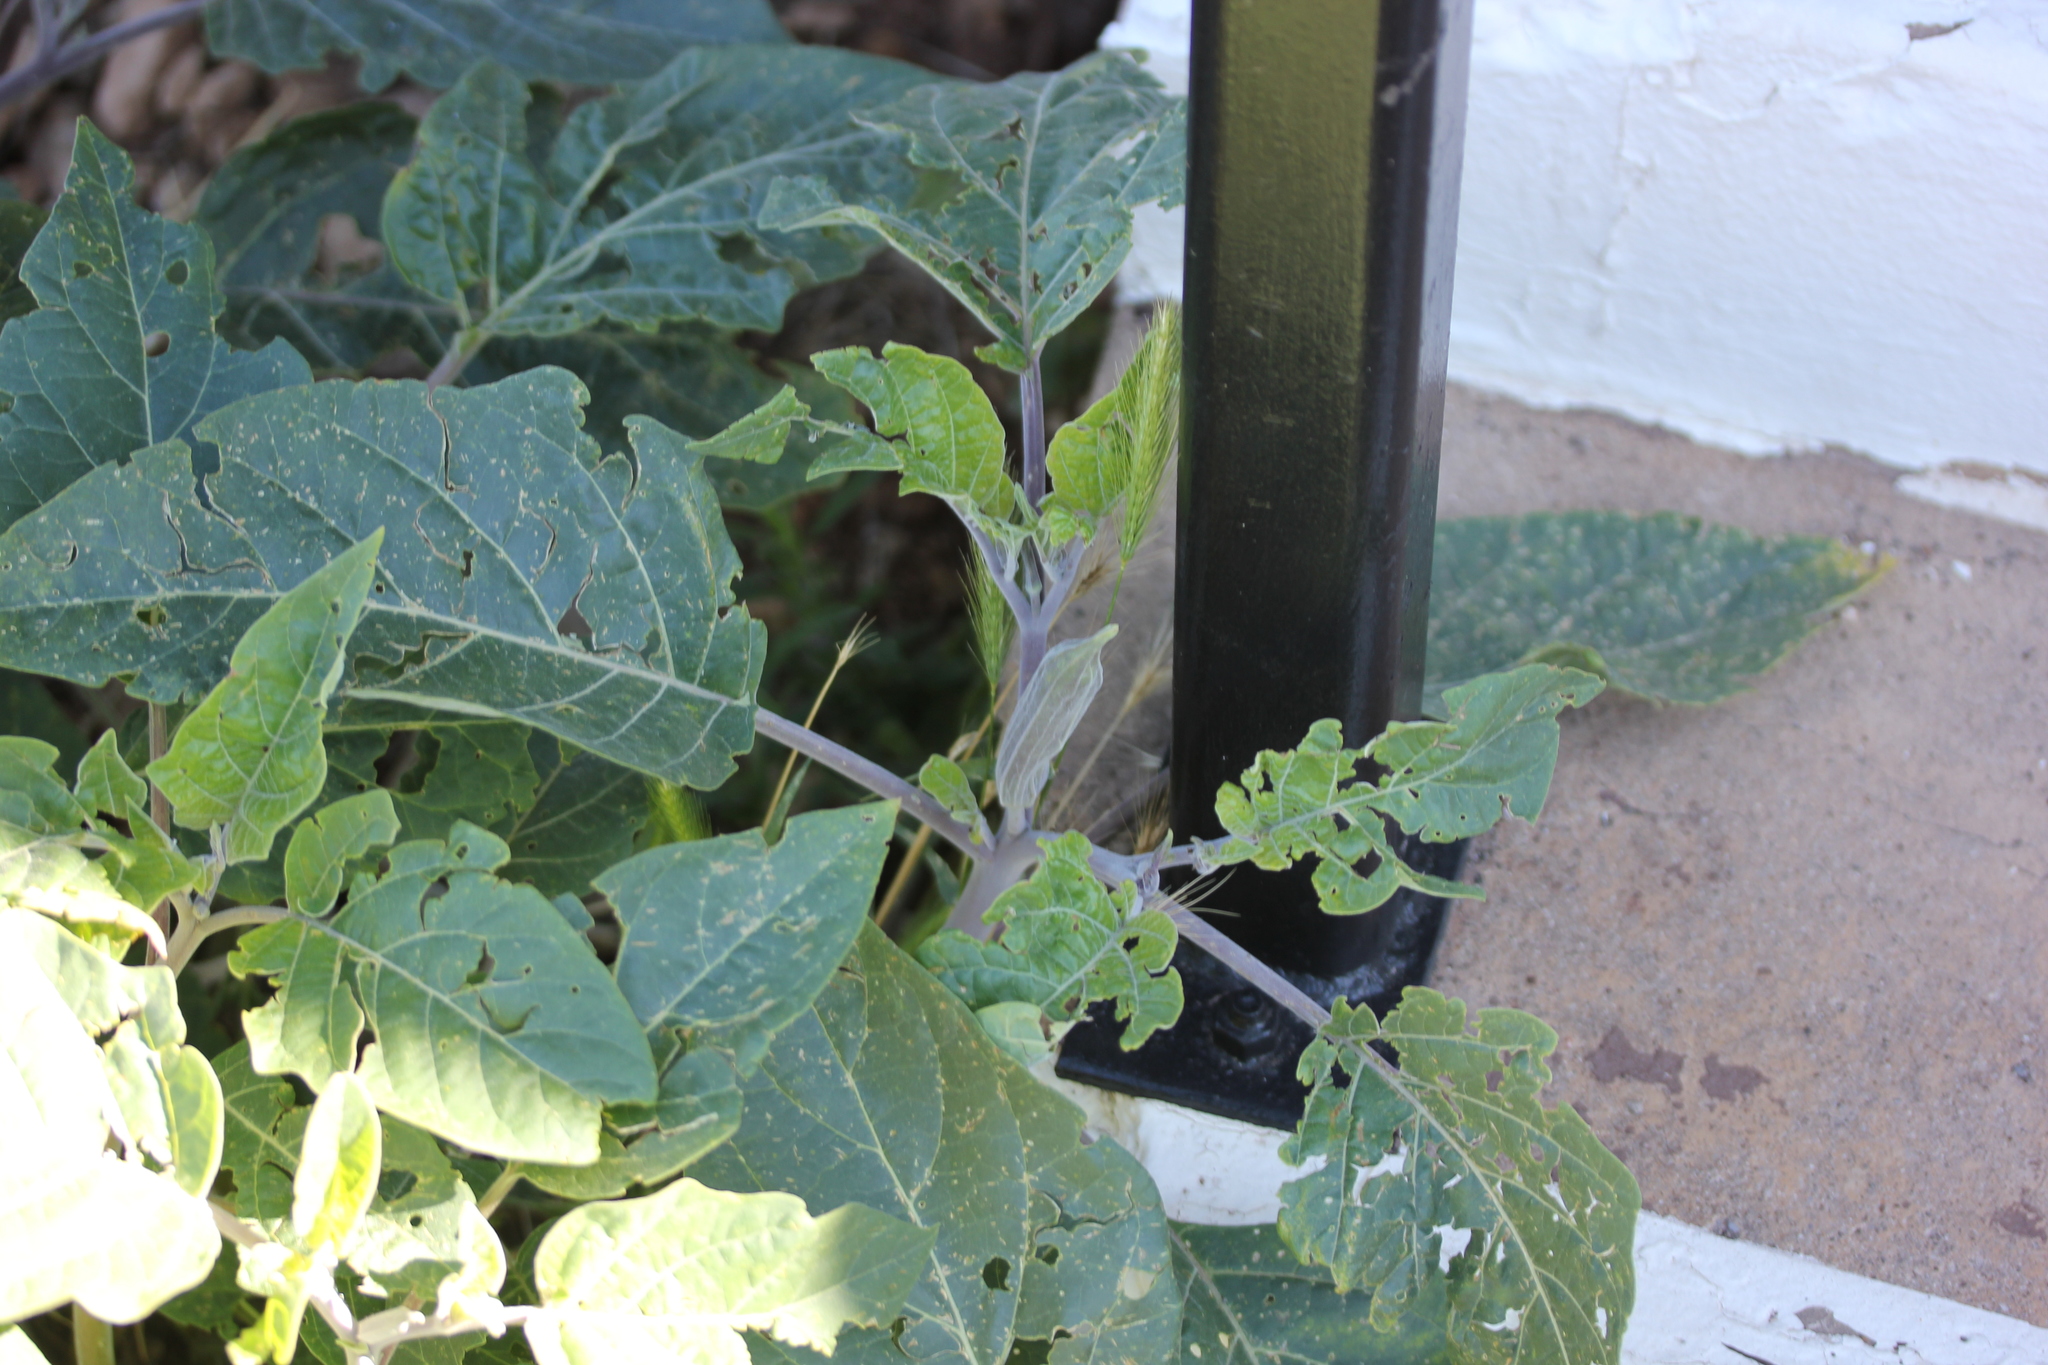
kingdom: Plantae
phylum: Tracheophyta
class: Magnoliopsida
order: Solanales
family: Solanaceae
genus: Datura
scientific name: Datura wrightii
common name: Sacred thorn-apple
